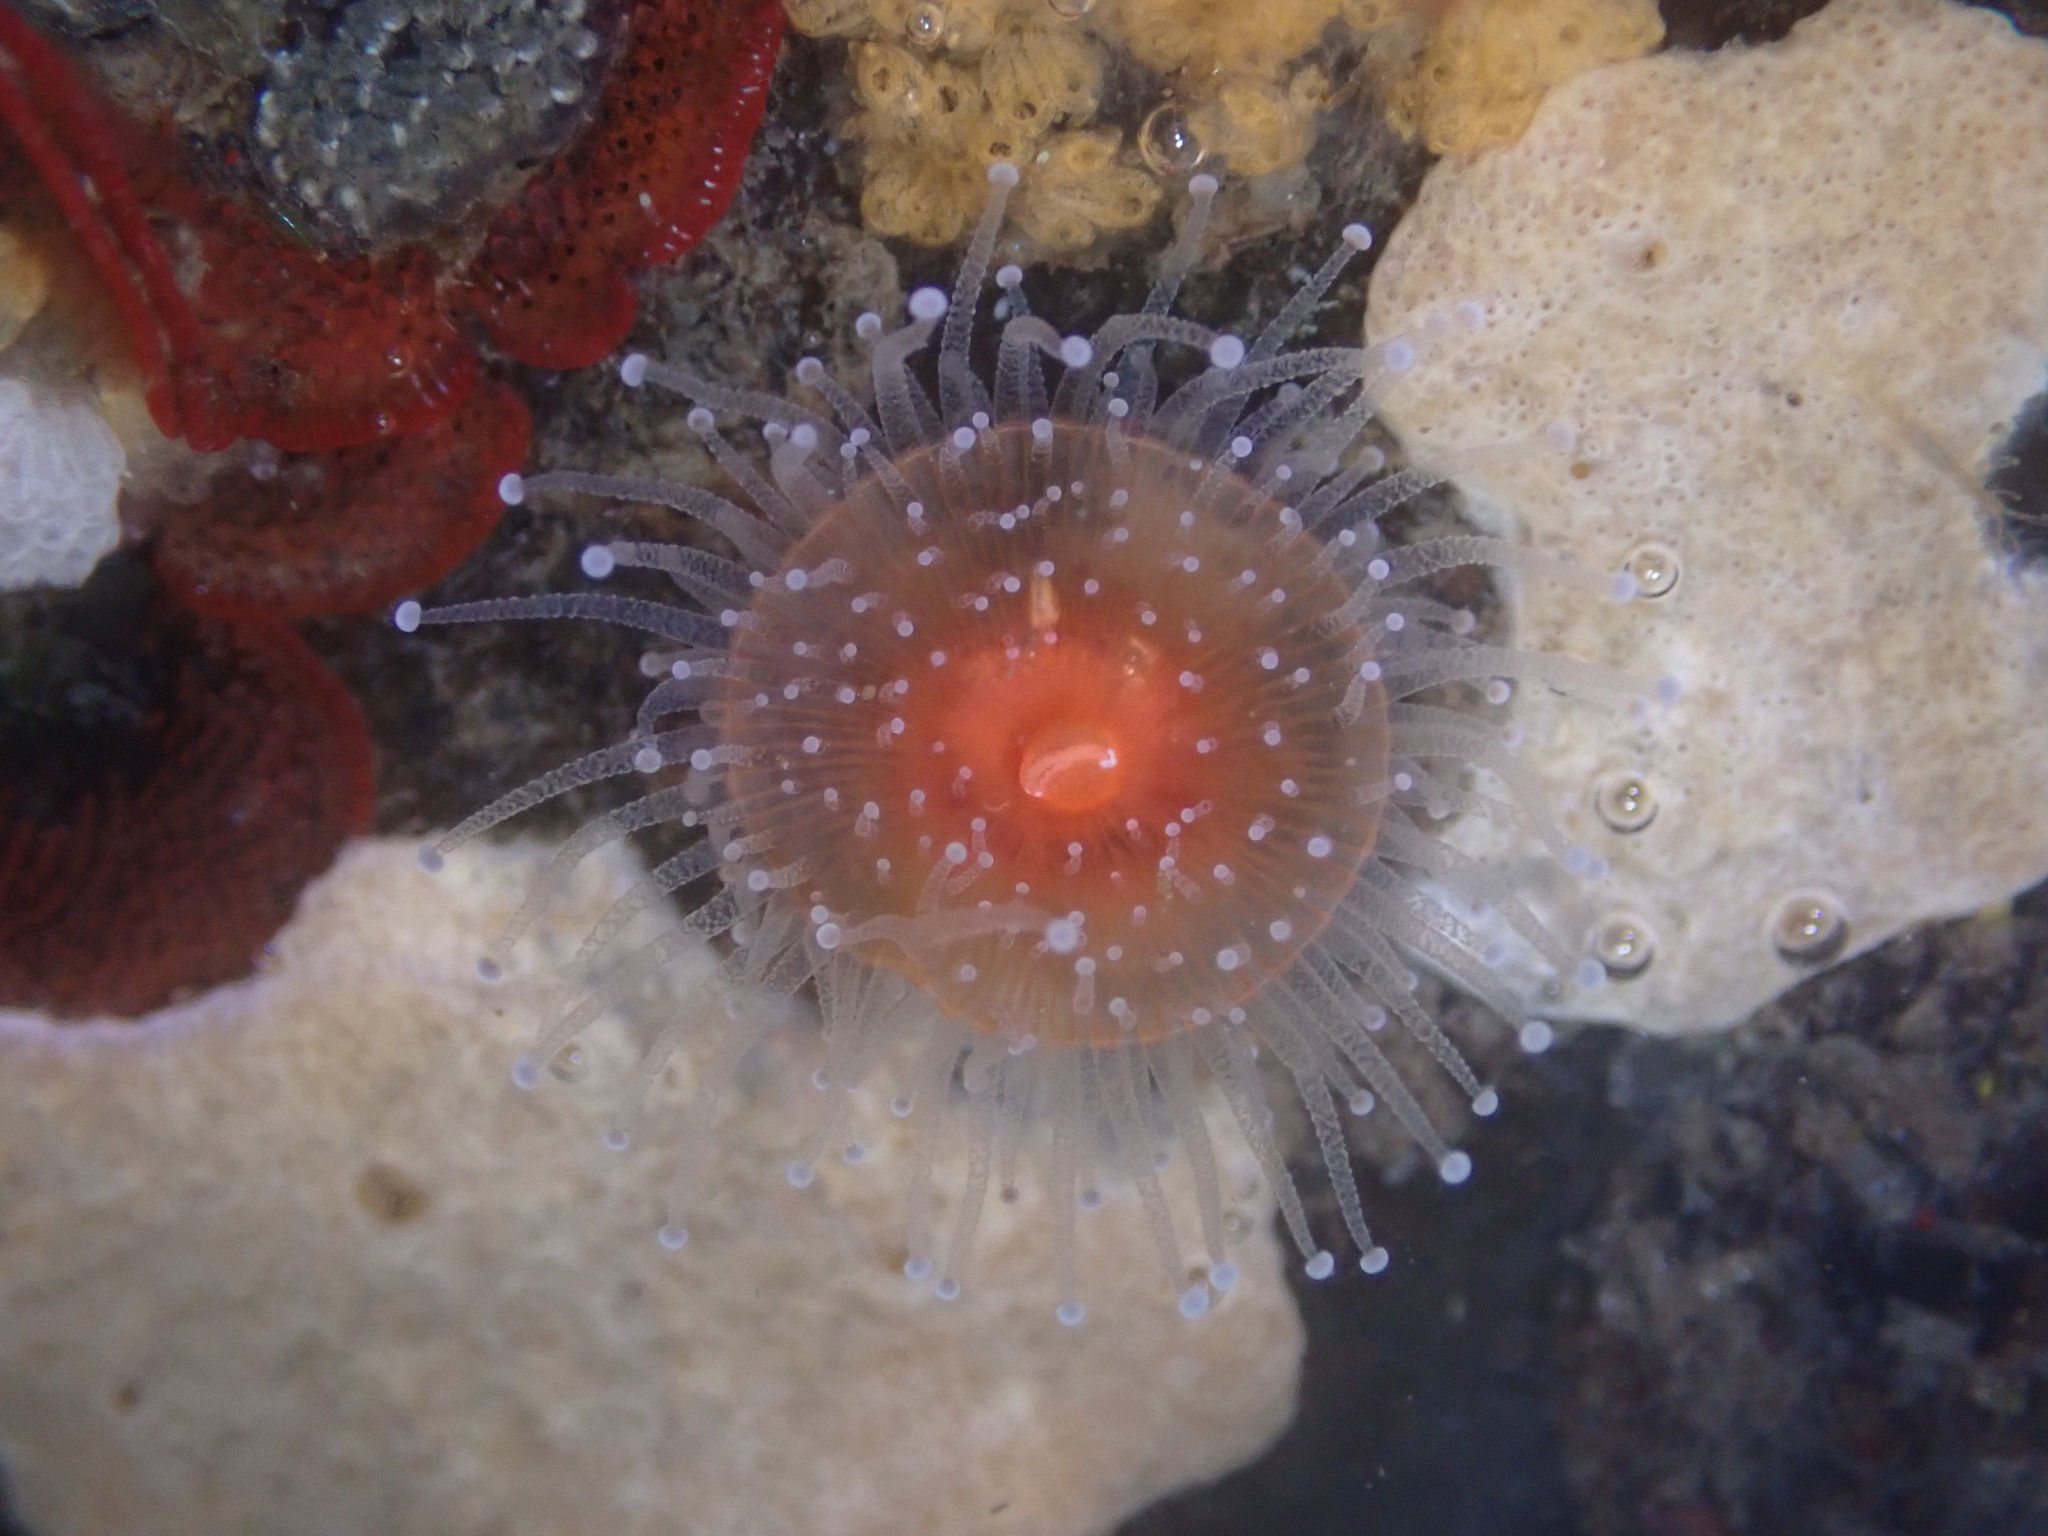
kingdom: Animalia
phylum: Cnidaria
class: Anthozoa
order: Corallimorpharia
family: Corallimorphidae
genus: Corynactis
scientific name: Corynactis californica
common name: Strawberry corallimorpharian
